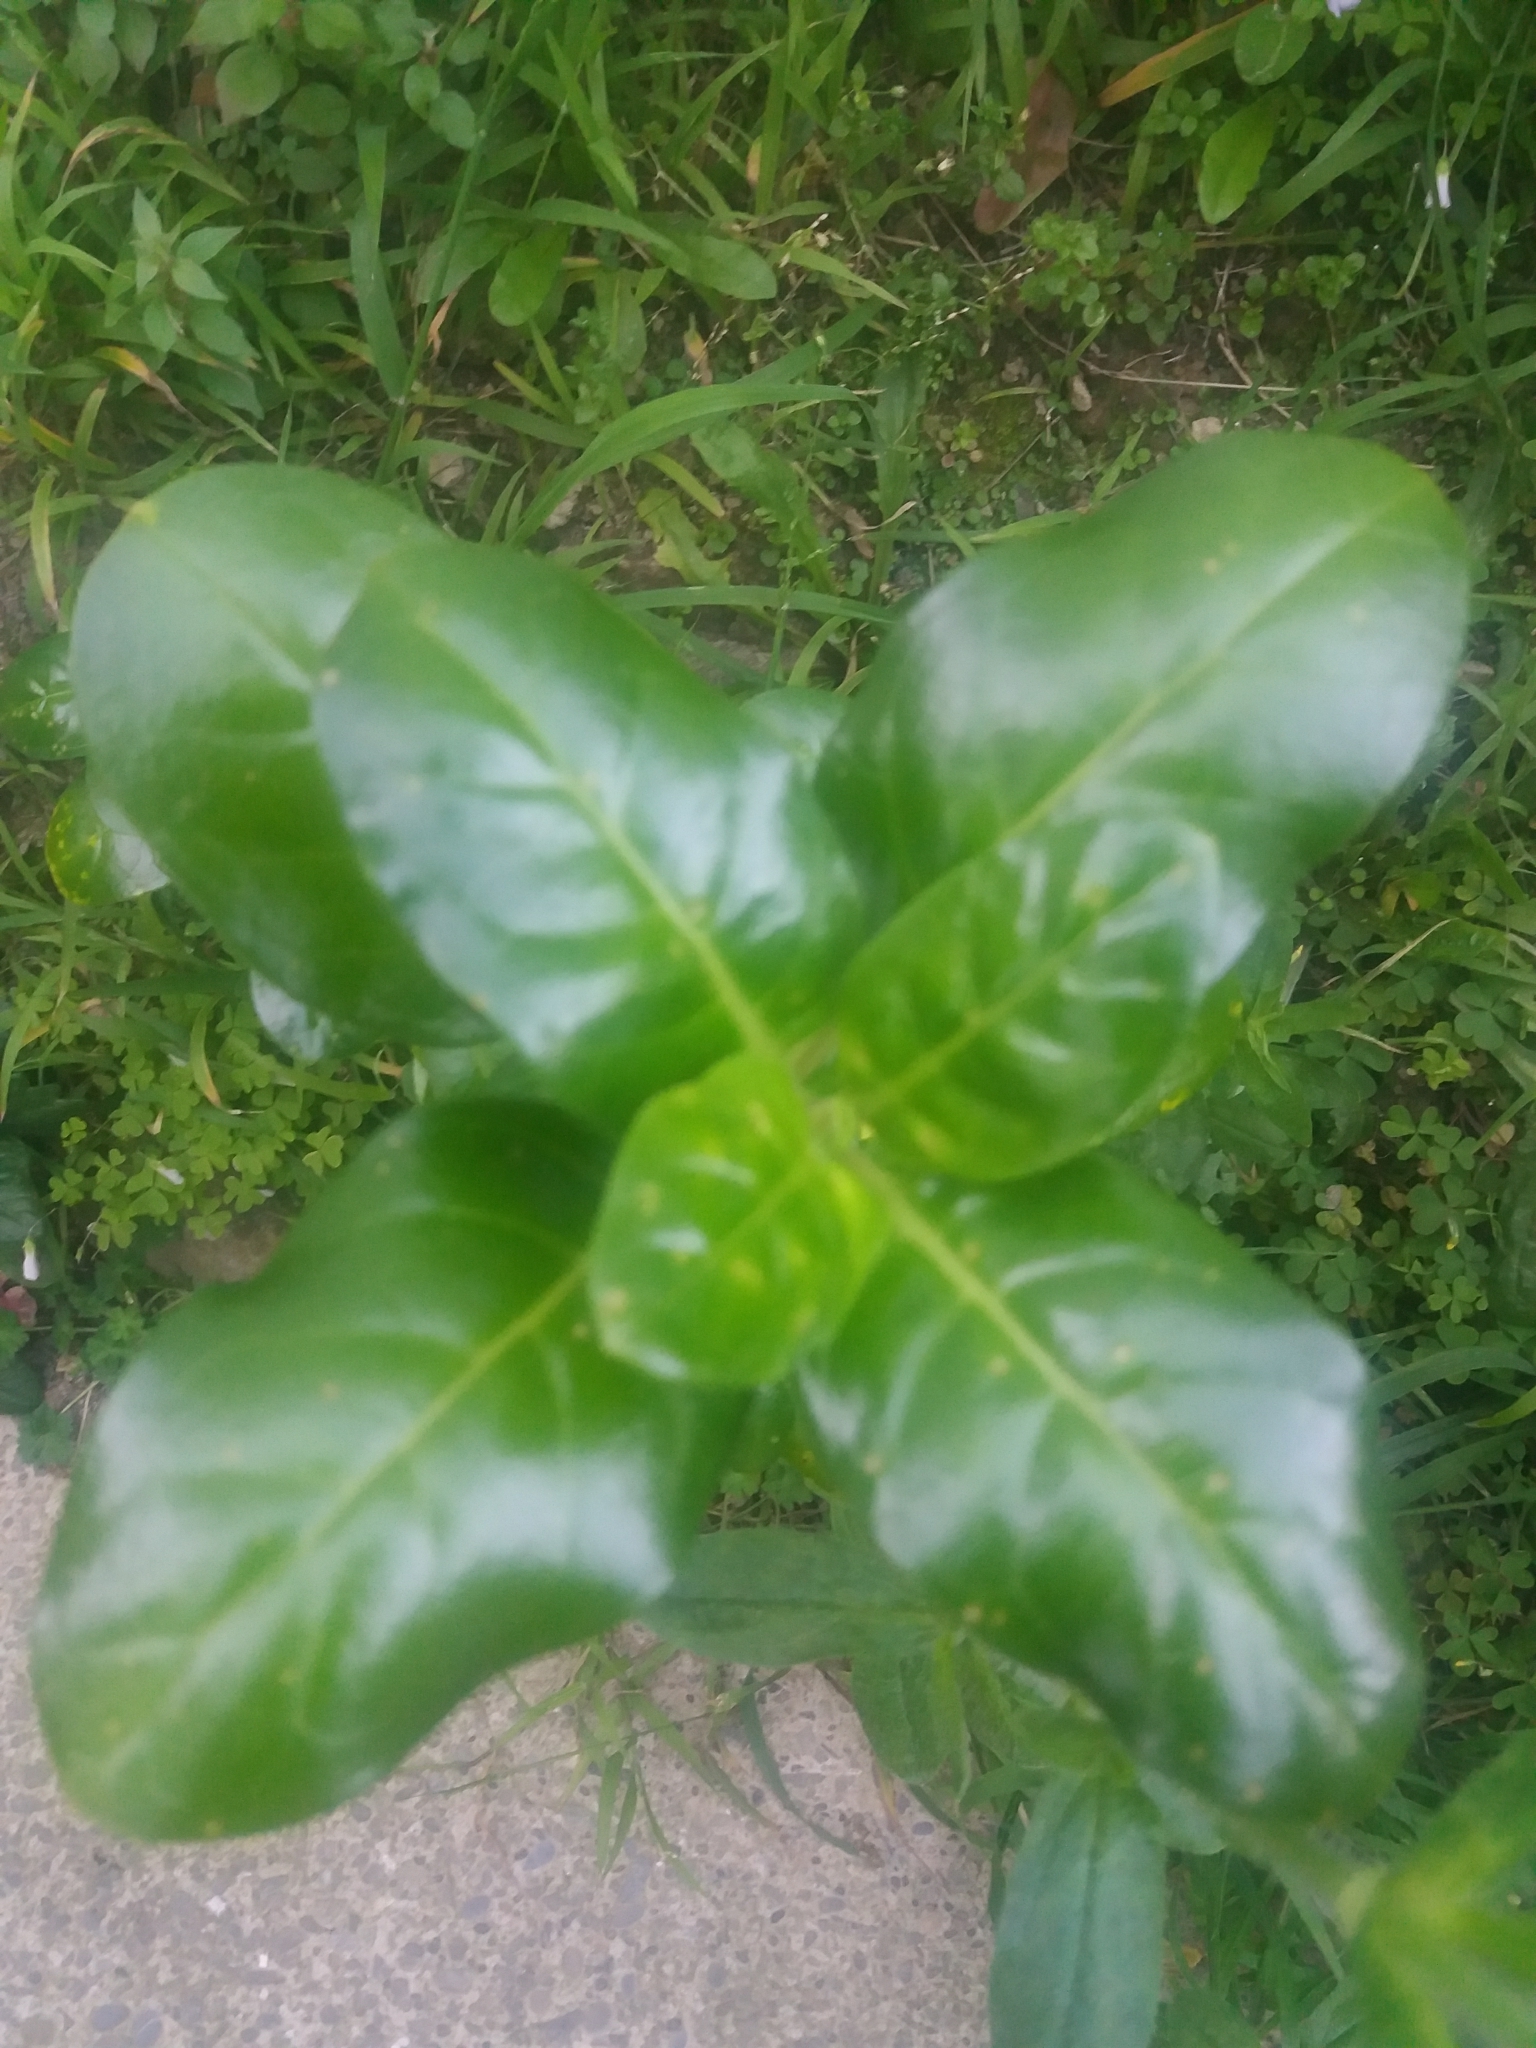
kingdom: Plantae
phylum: Tracheophyta
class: Magnoliopsida
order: Gentianales
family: Rubiaceae
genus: Coprosma
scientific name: Coprosma repens
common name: Tree bedstraw
